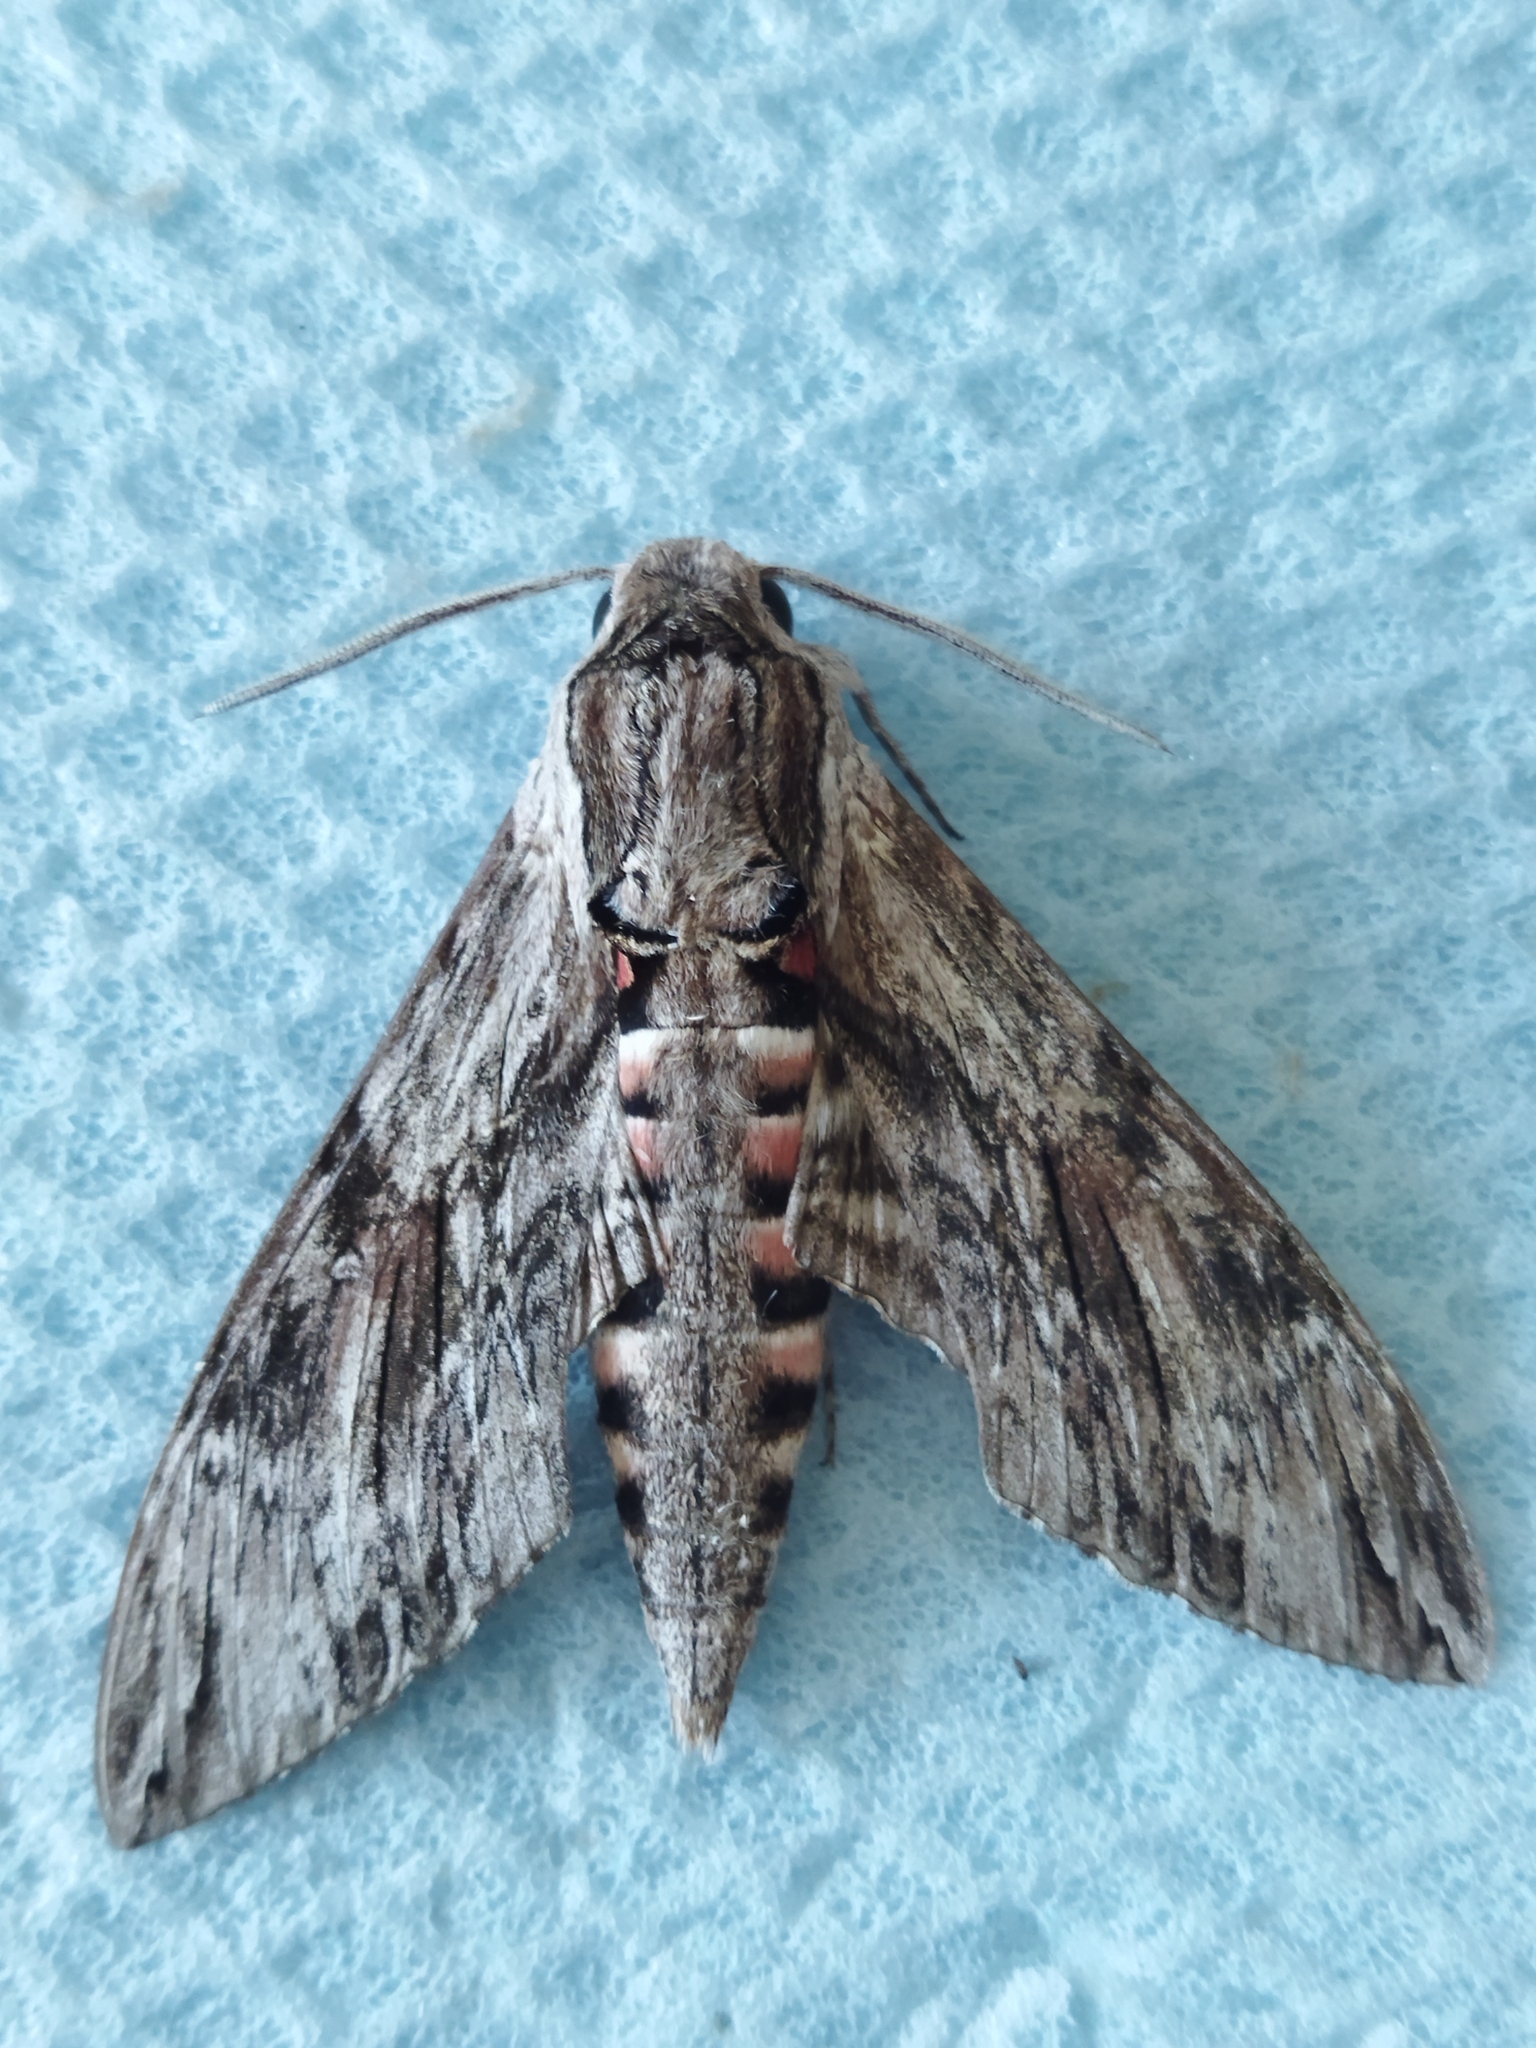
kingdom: Animalia
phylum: Arthropoda
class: Insecta
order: Lepidoptera
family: Sphingidae
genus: Agrius
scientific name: Agrius convolvuli
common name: Convolvulus hawkmoth
